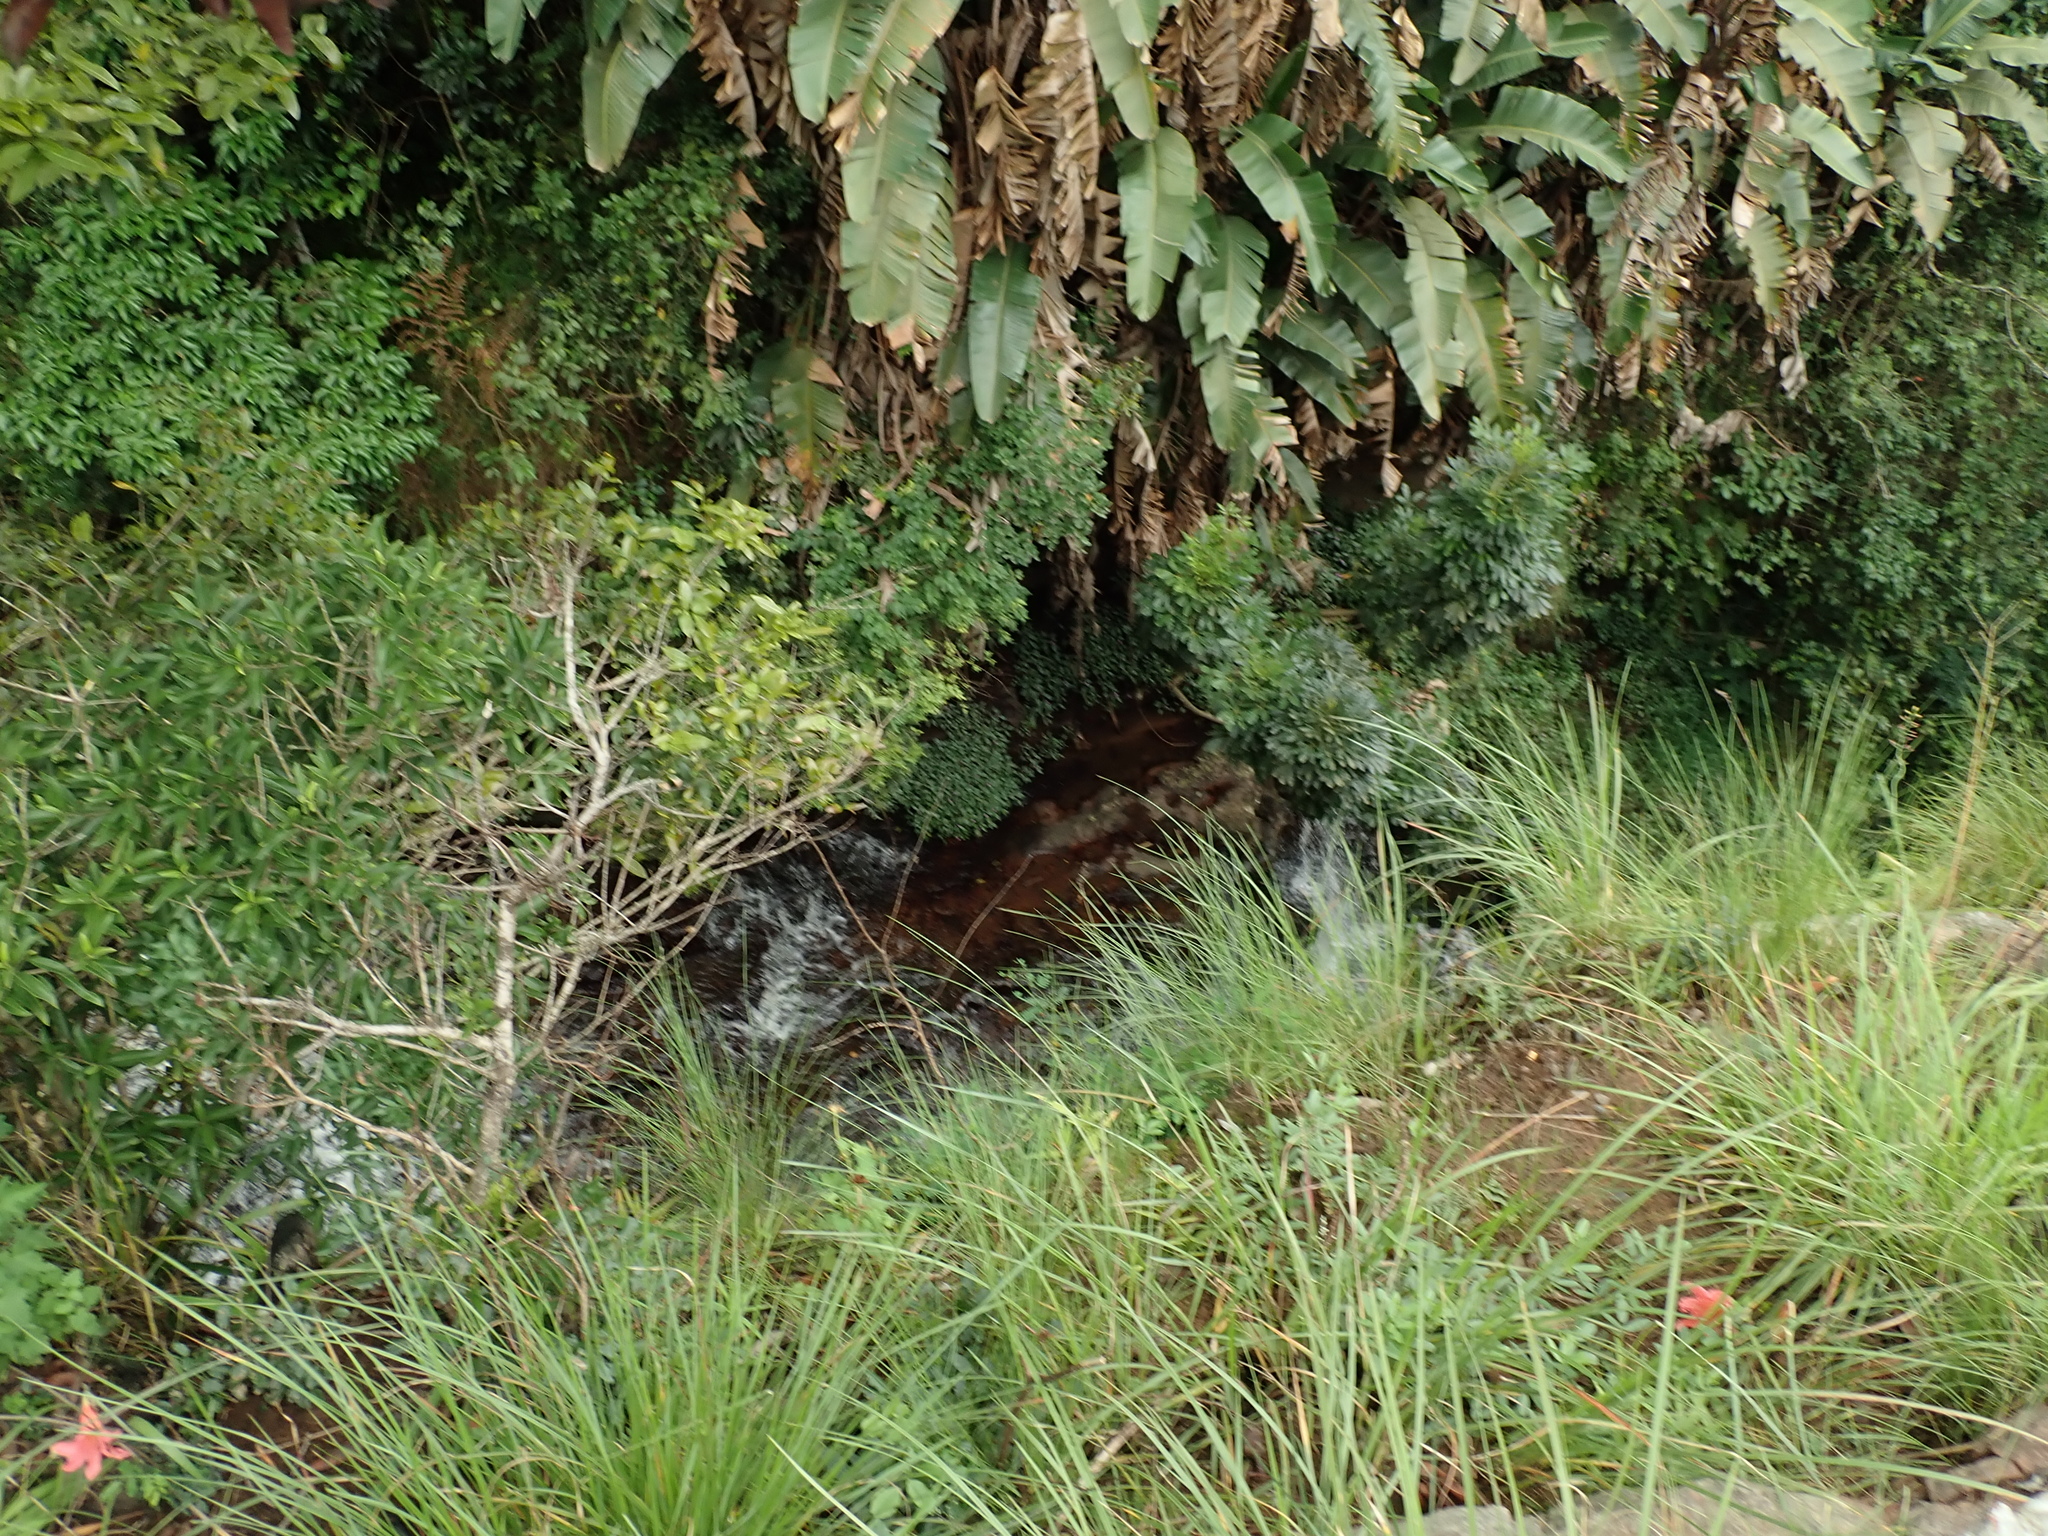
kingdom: Plantae
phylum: Tracheophyta
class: Liliopsida
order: Asparagales
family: Amaryllidaceae
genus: Cyrtanthus
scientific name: Cyrtanthus sanguineus
